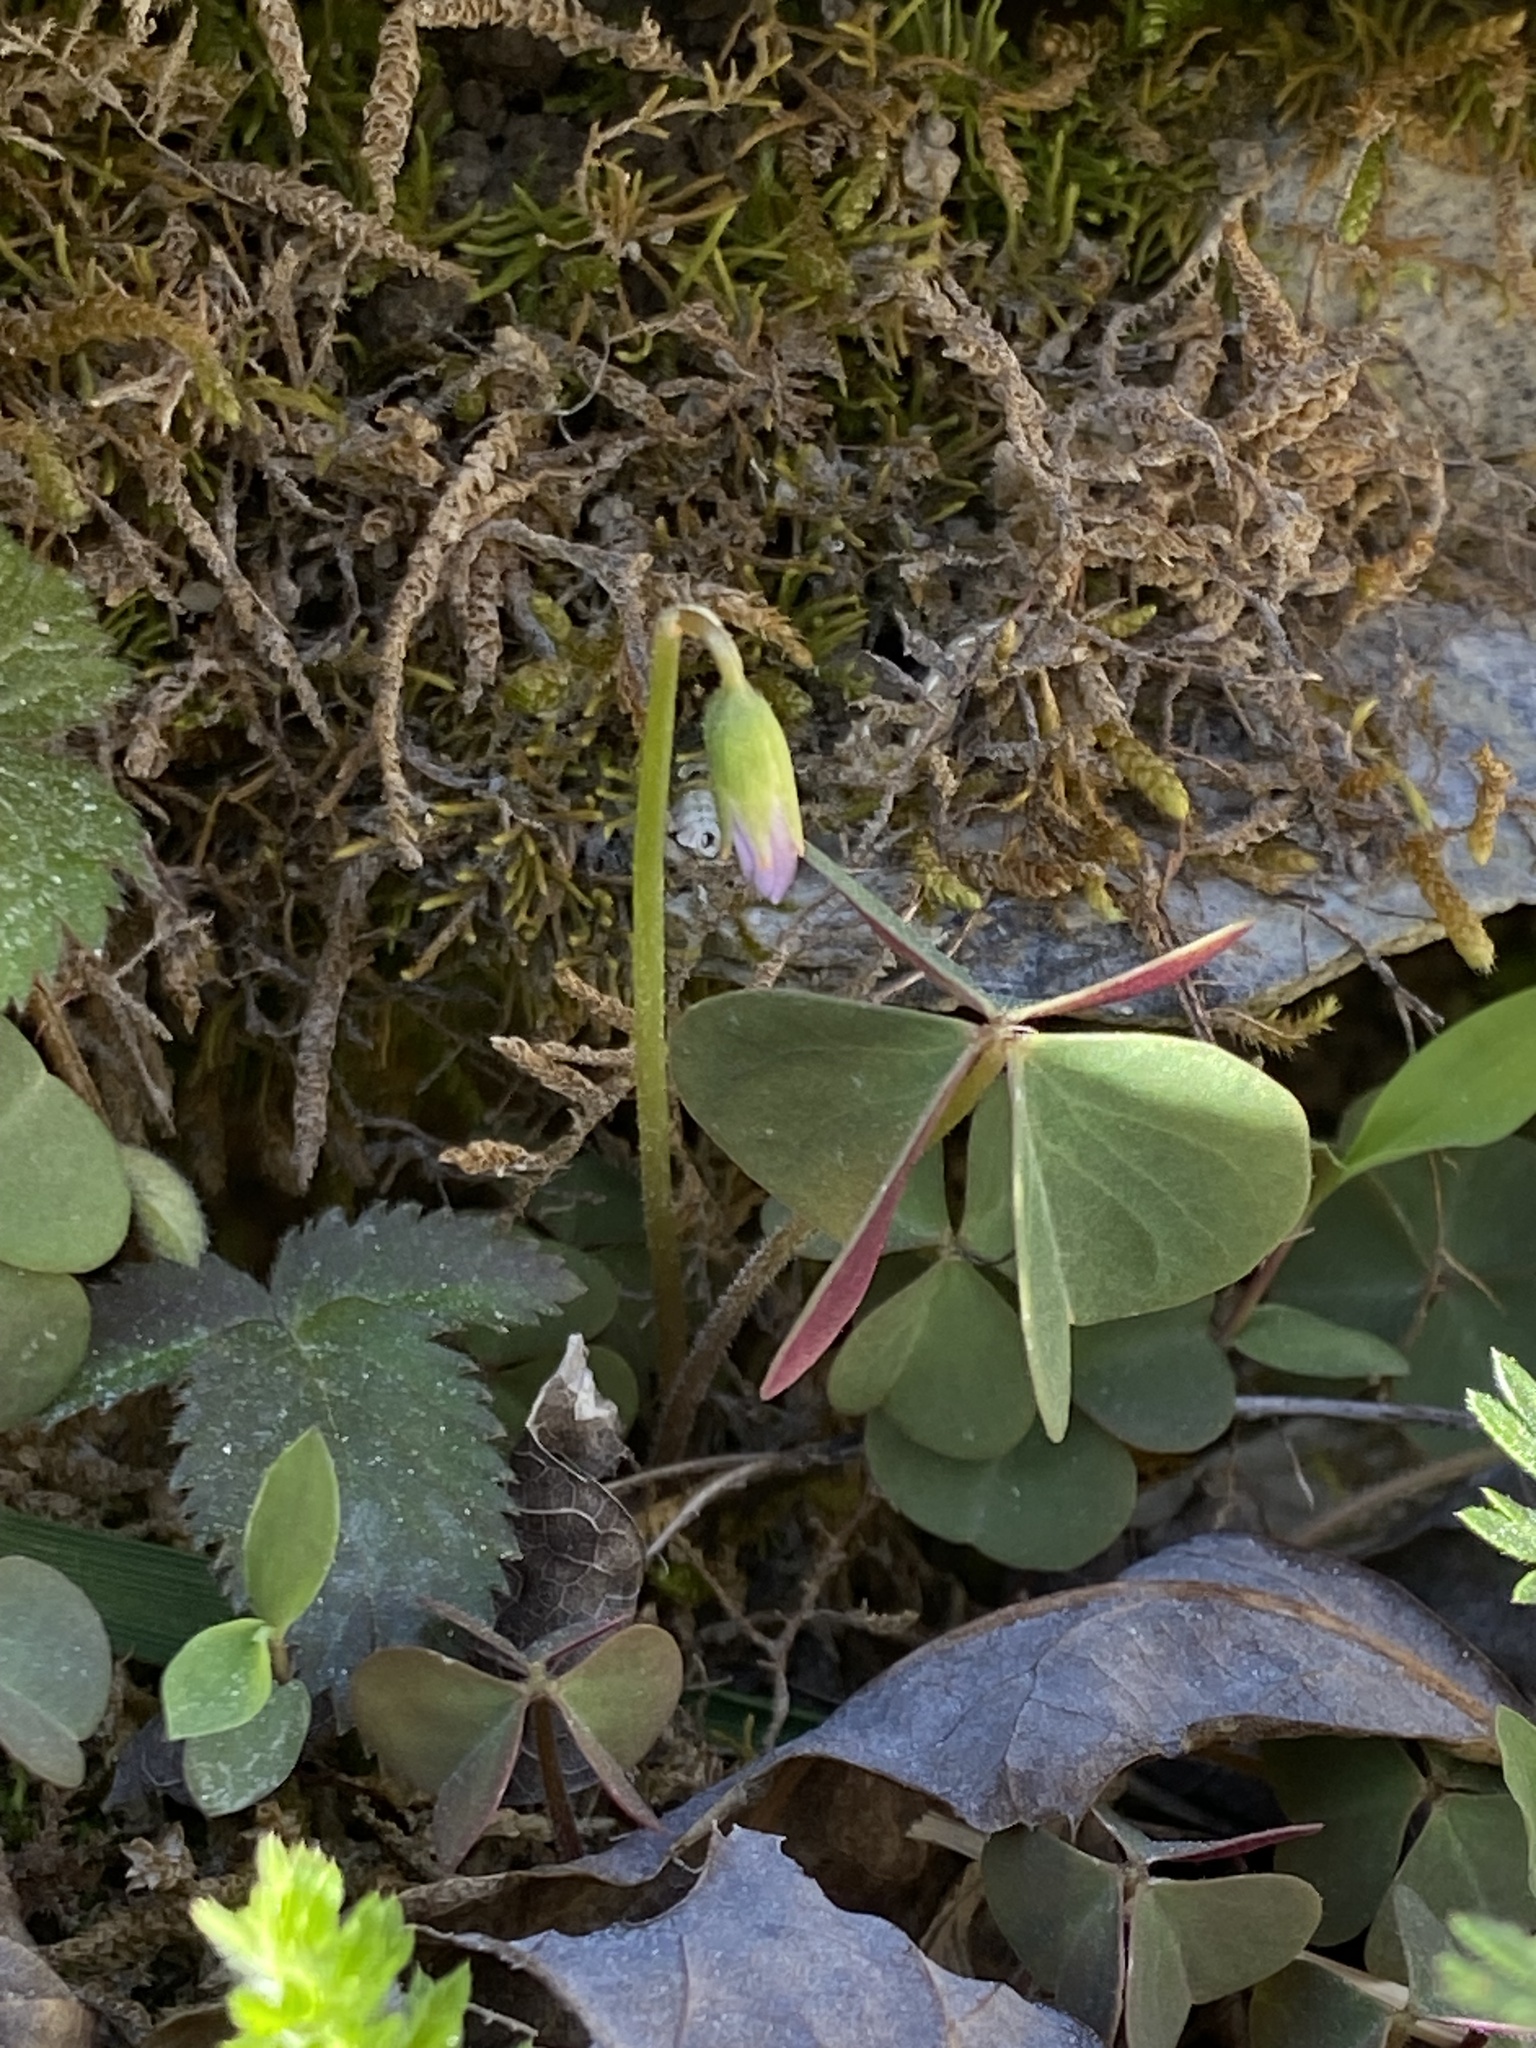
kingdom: Plantae
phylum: Tracheophyta
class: Magnoliopsida
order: Oxalidales
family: Oxalidaceae
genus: Oxalis
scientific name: Oxalis violacea
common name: Violet wood-sorrel
